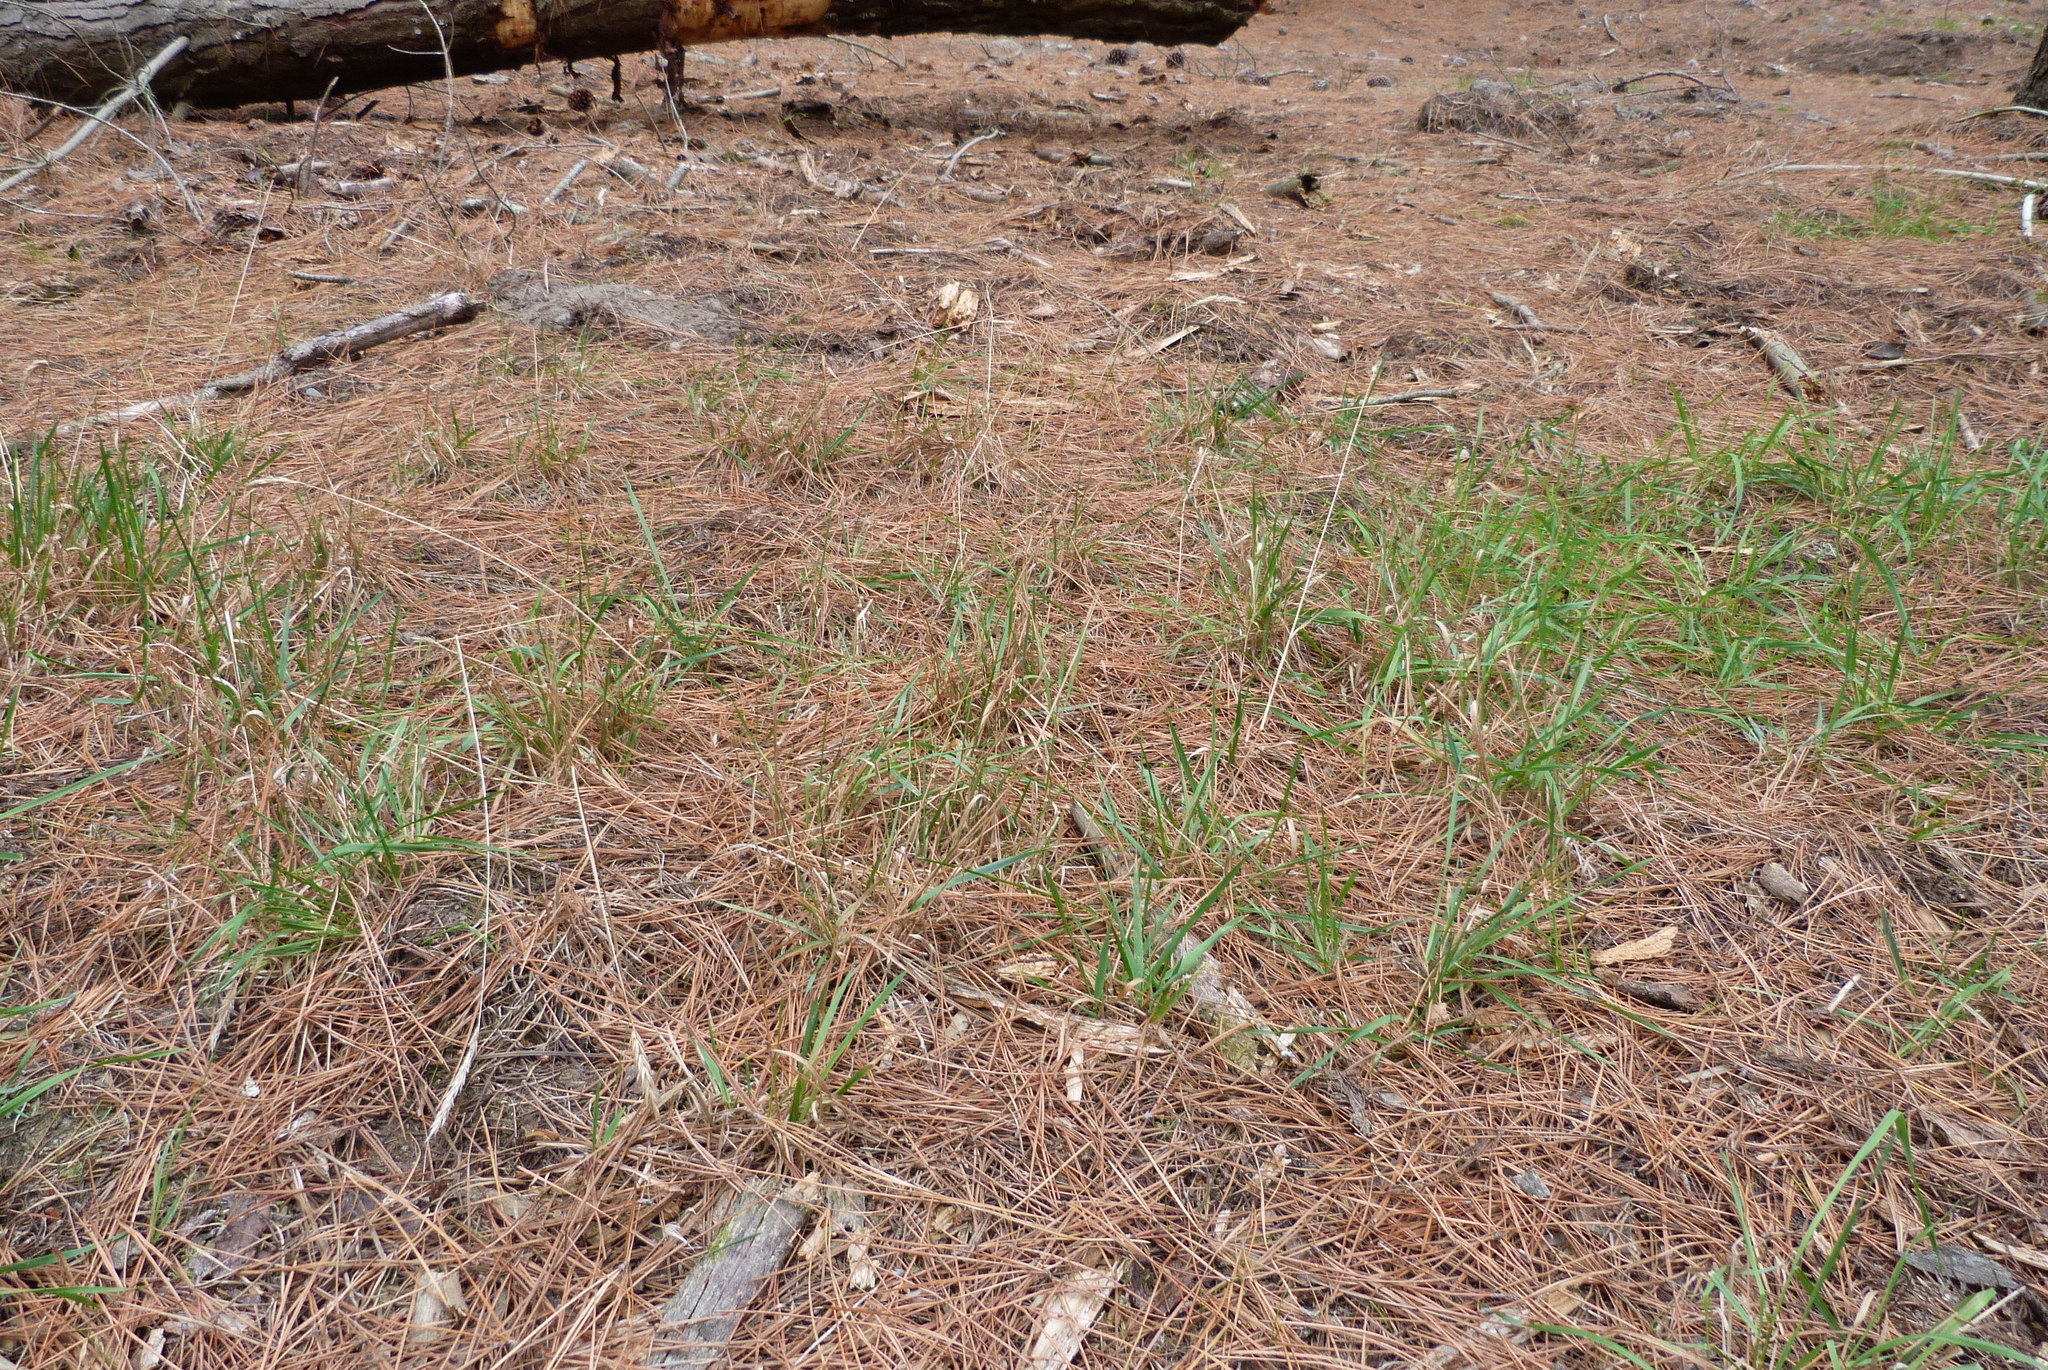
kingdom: Plantae
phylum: Tracheophyta
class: Liliopsida
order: Poales
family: Poaceae
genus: Anthoxanthum
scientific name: Anthoxanthum odoratum
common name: Sweet vernalgrass
